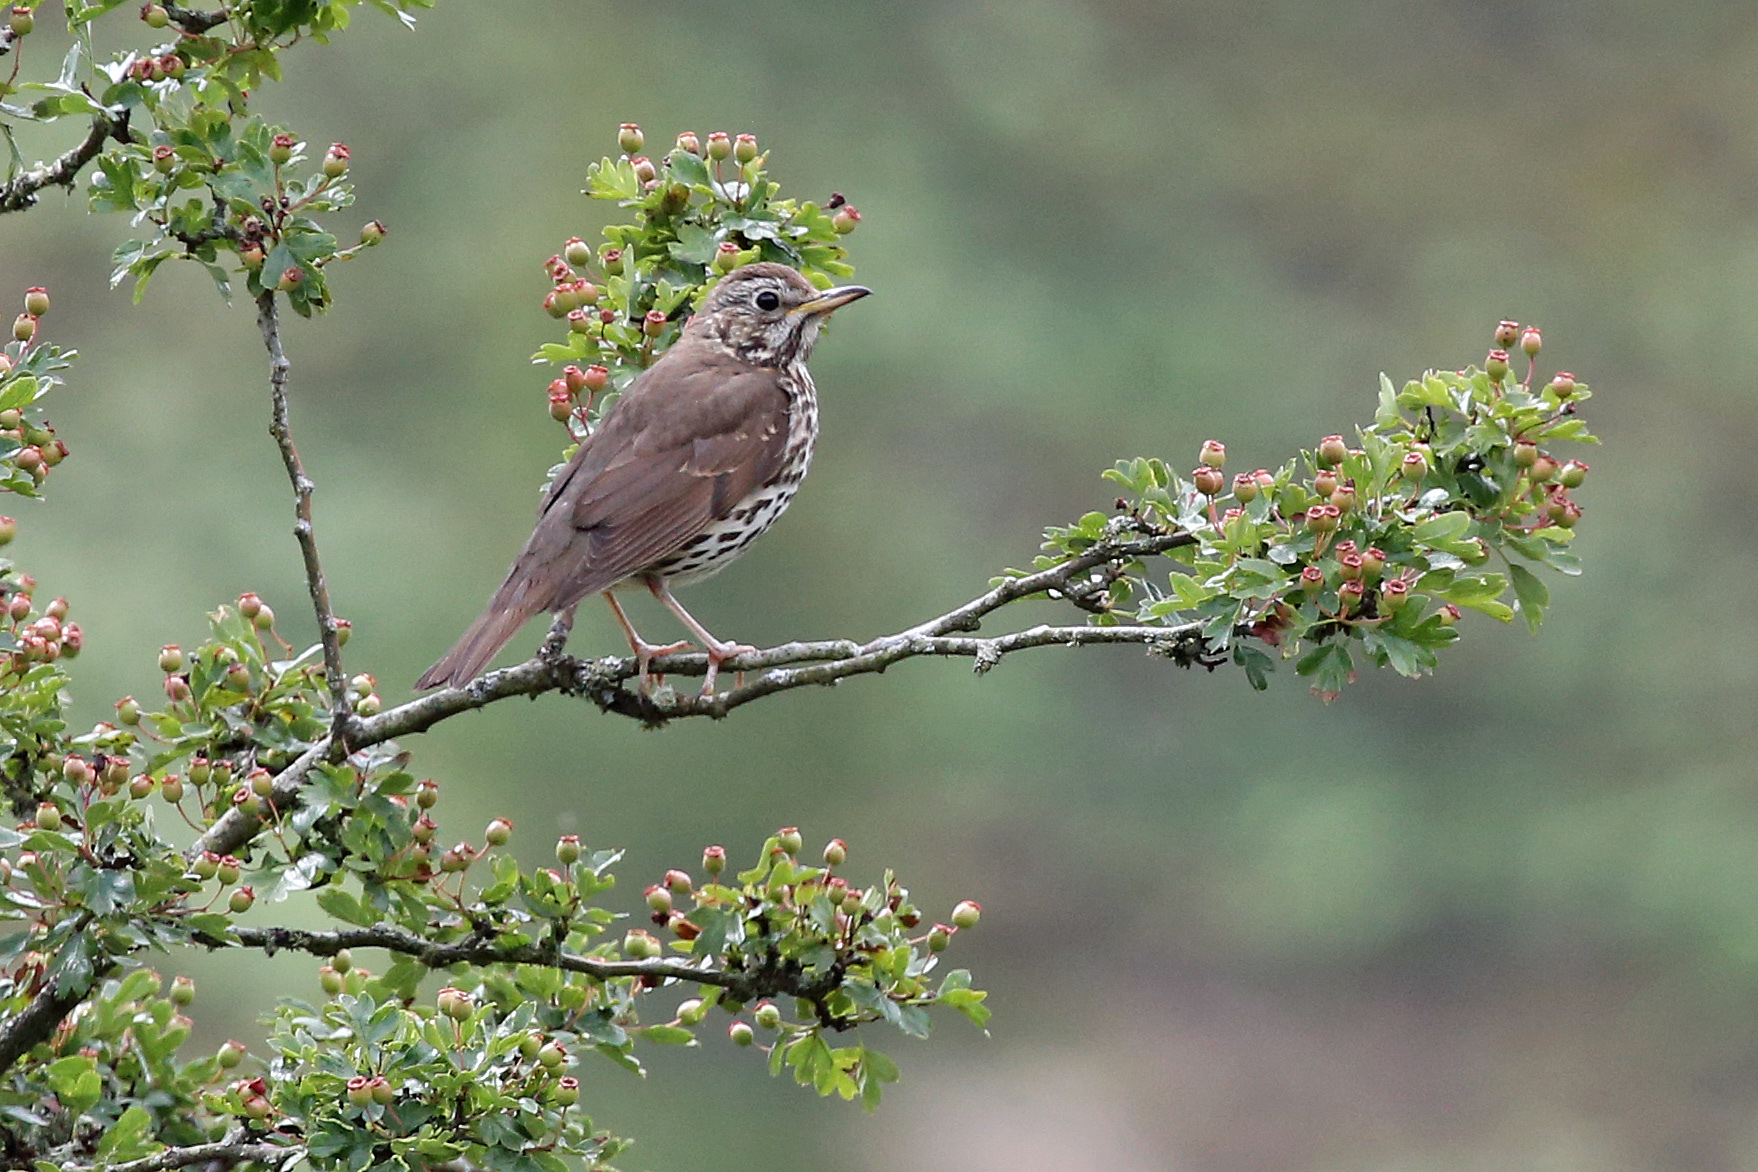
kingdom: Animalia
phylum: Chordata
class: Aves
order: Passeriformes
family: Turdidae
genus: Turdus
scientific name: Turdus philomelos
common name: Song thrush
